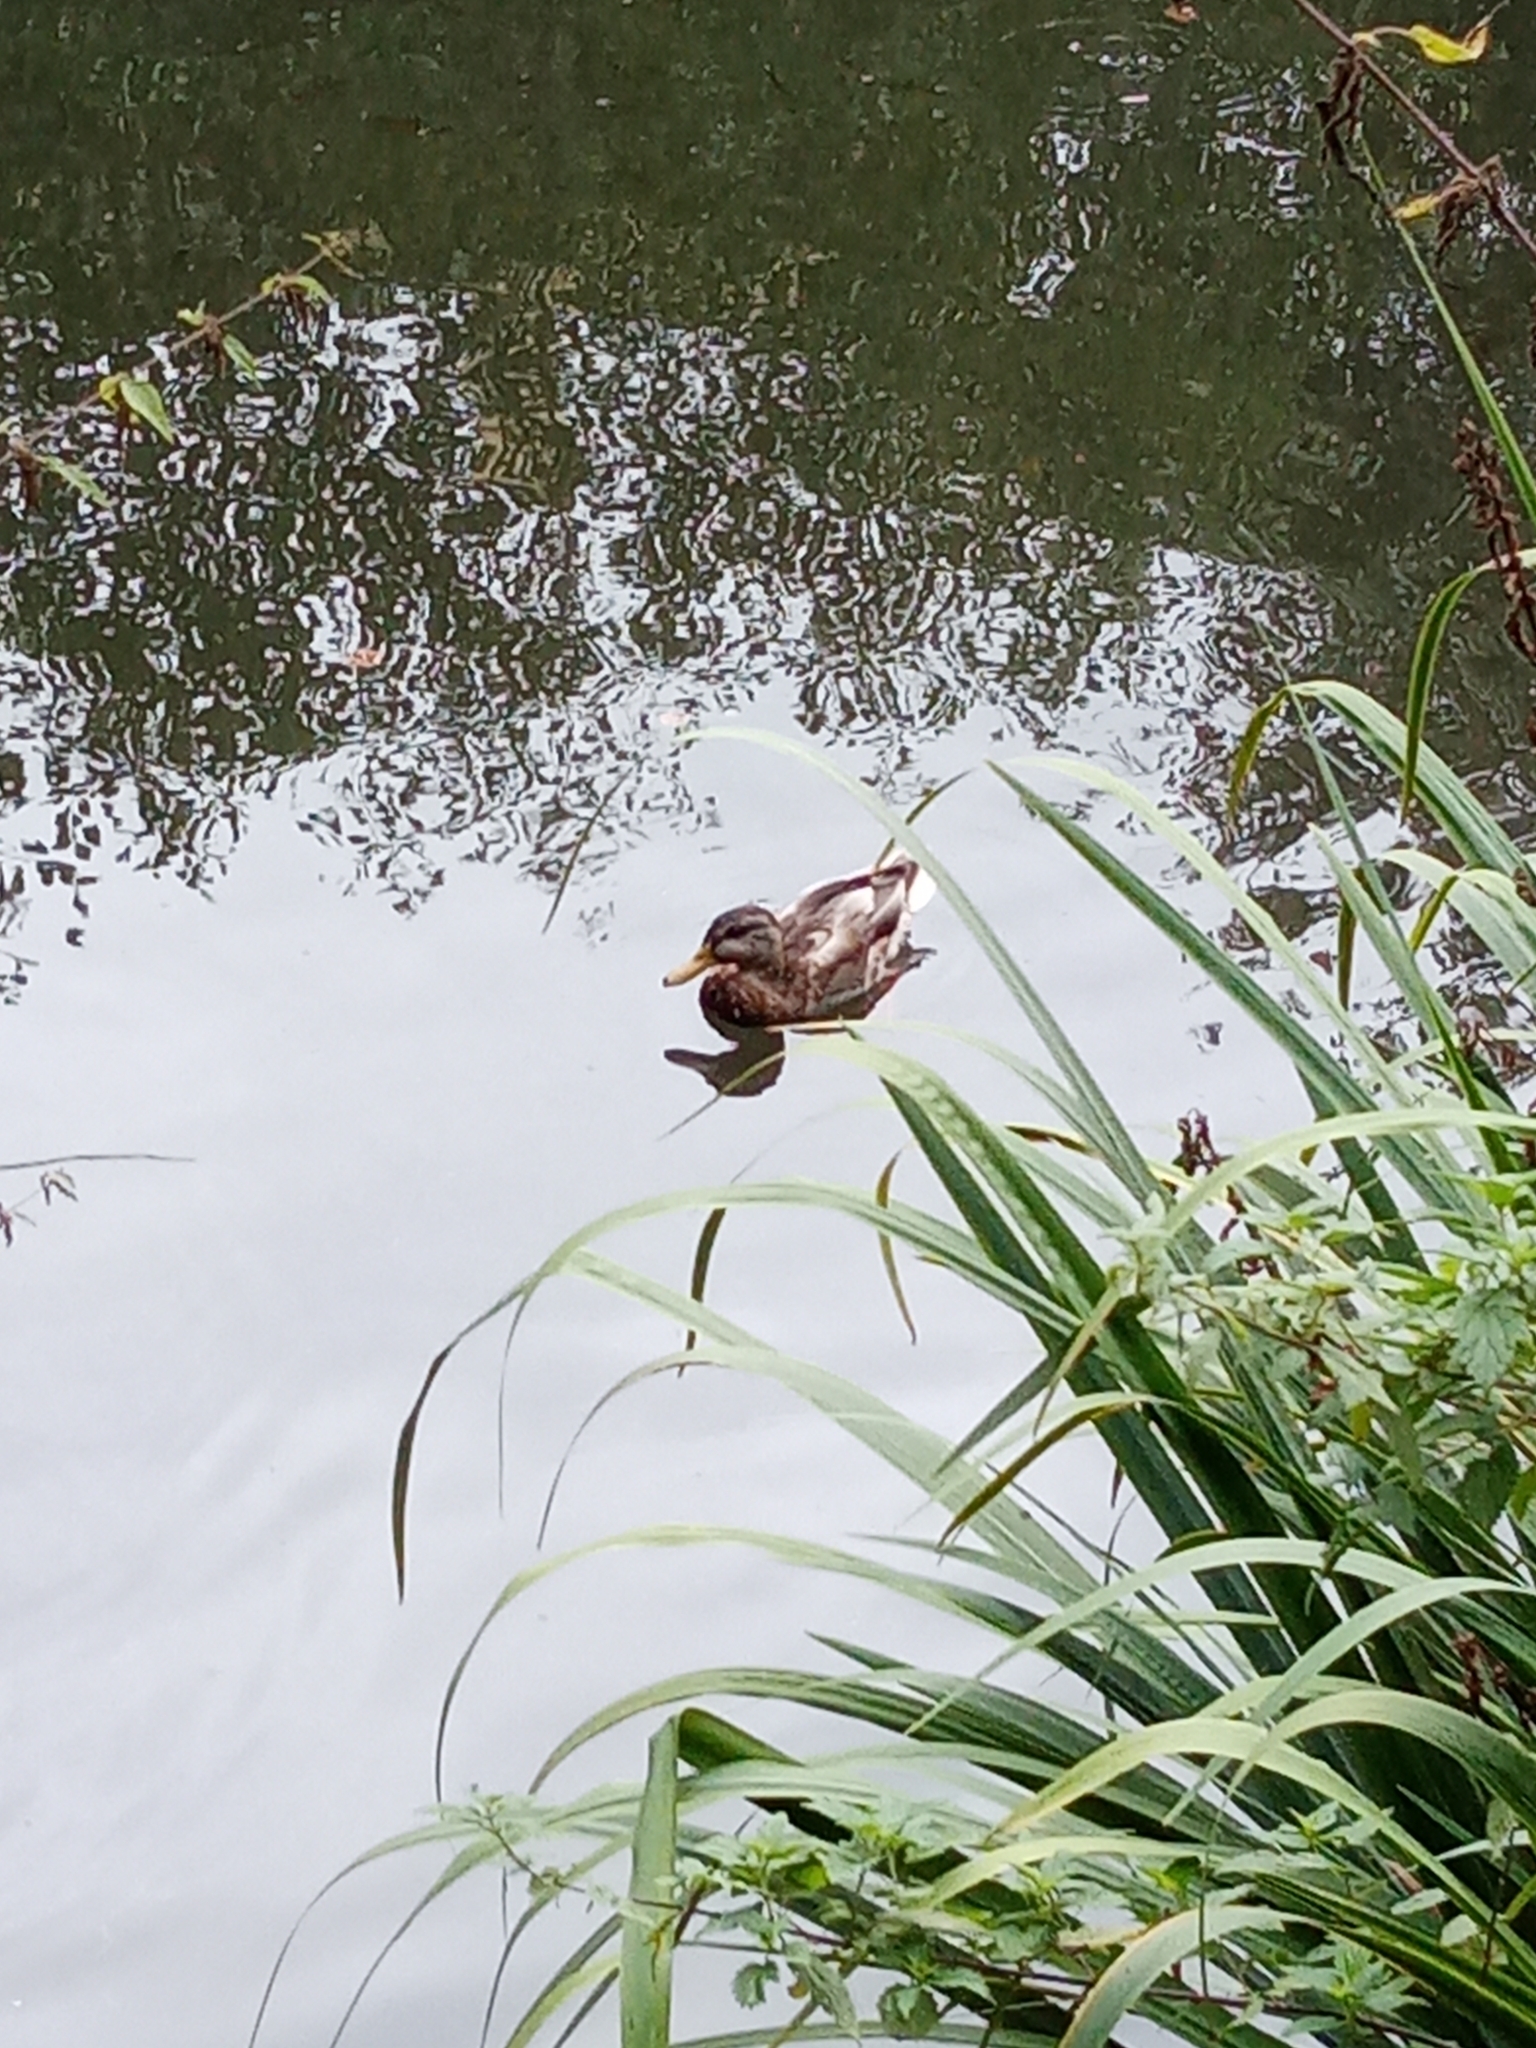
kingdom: Animalia
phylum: Chordata
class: Aves
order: Anseriformes
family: Anatidae
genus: Anas
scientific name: Anas platyrhynchos
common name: Mallard
